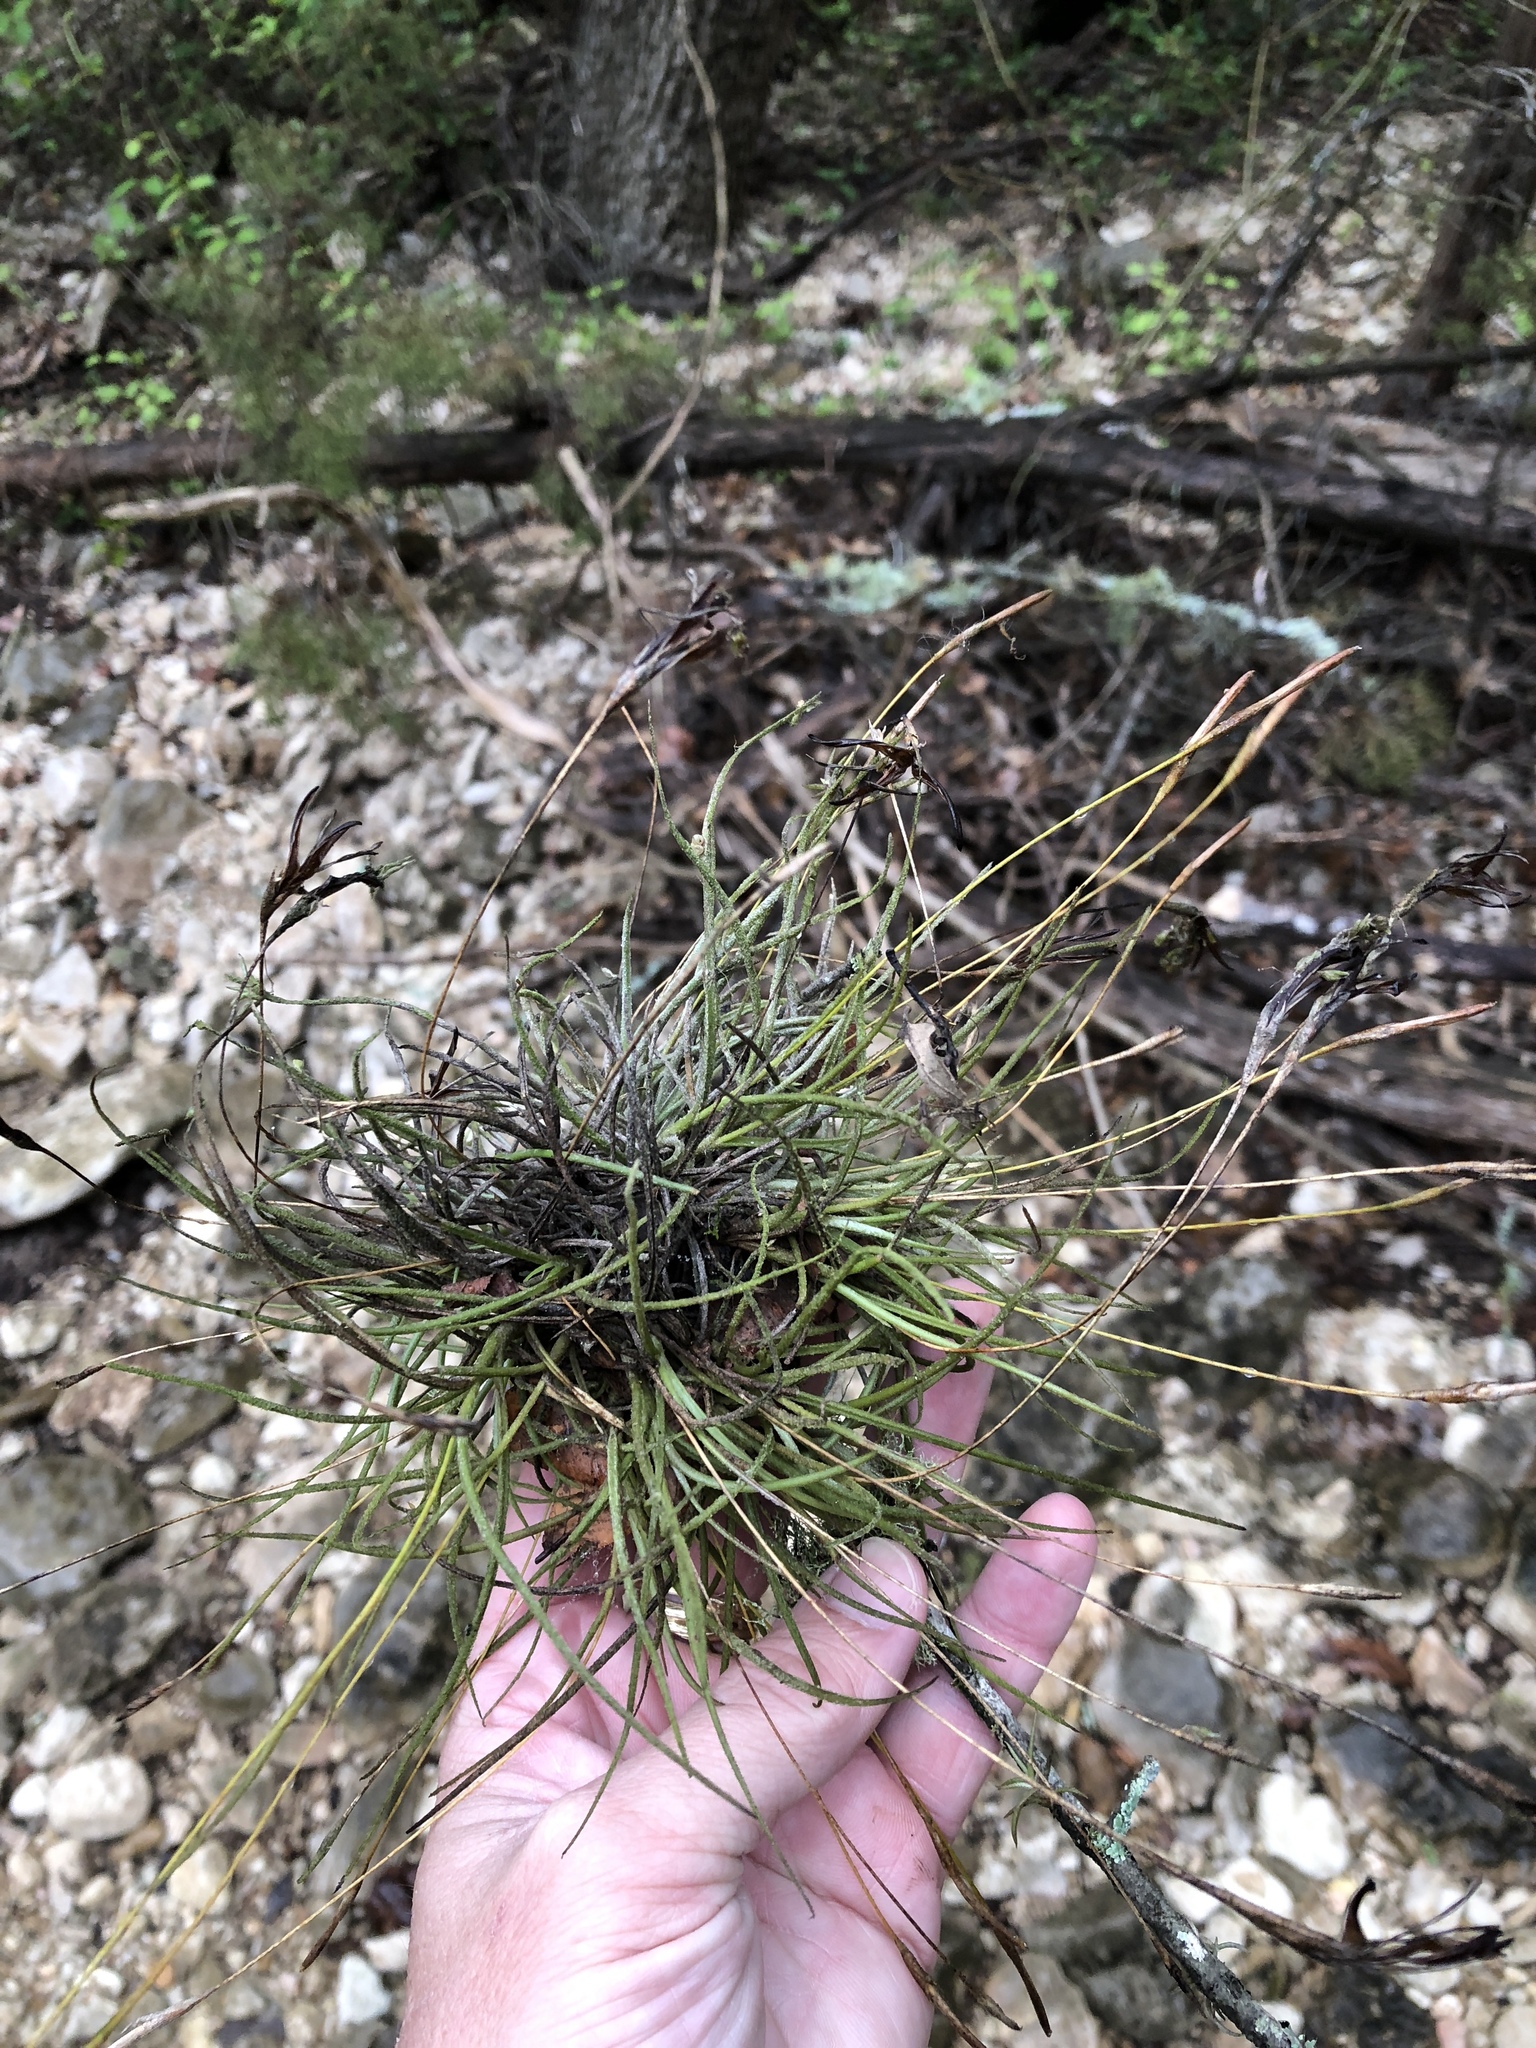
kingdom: Plantae
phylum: Tracheophyta
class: Liliopsida
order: Poales
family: Bromeliaceae
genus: Tillandsia
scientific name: Tillandsia recurvata
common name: Small ballmoss
